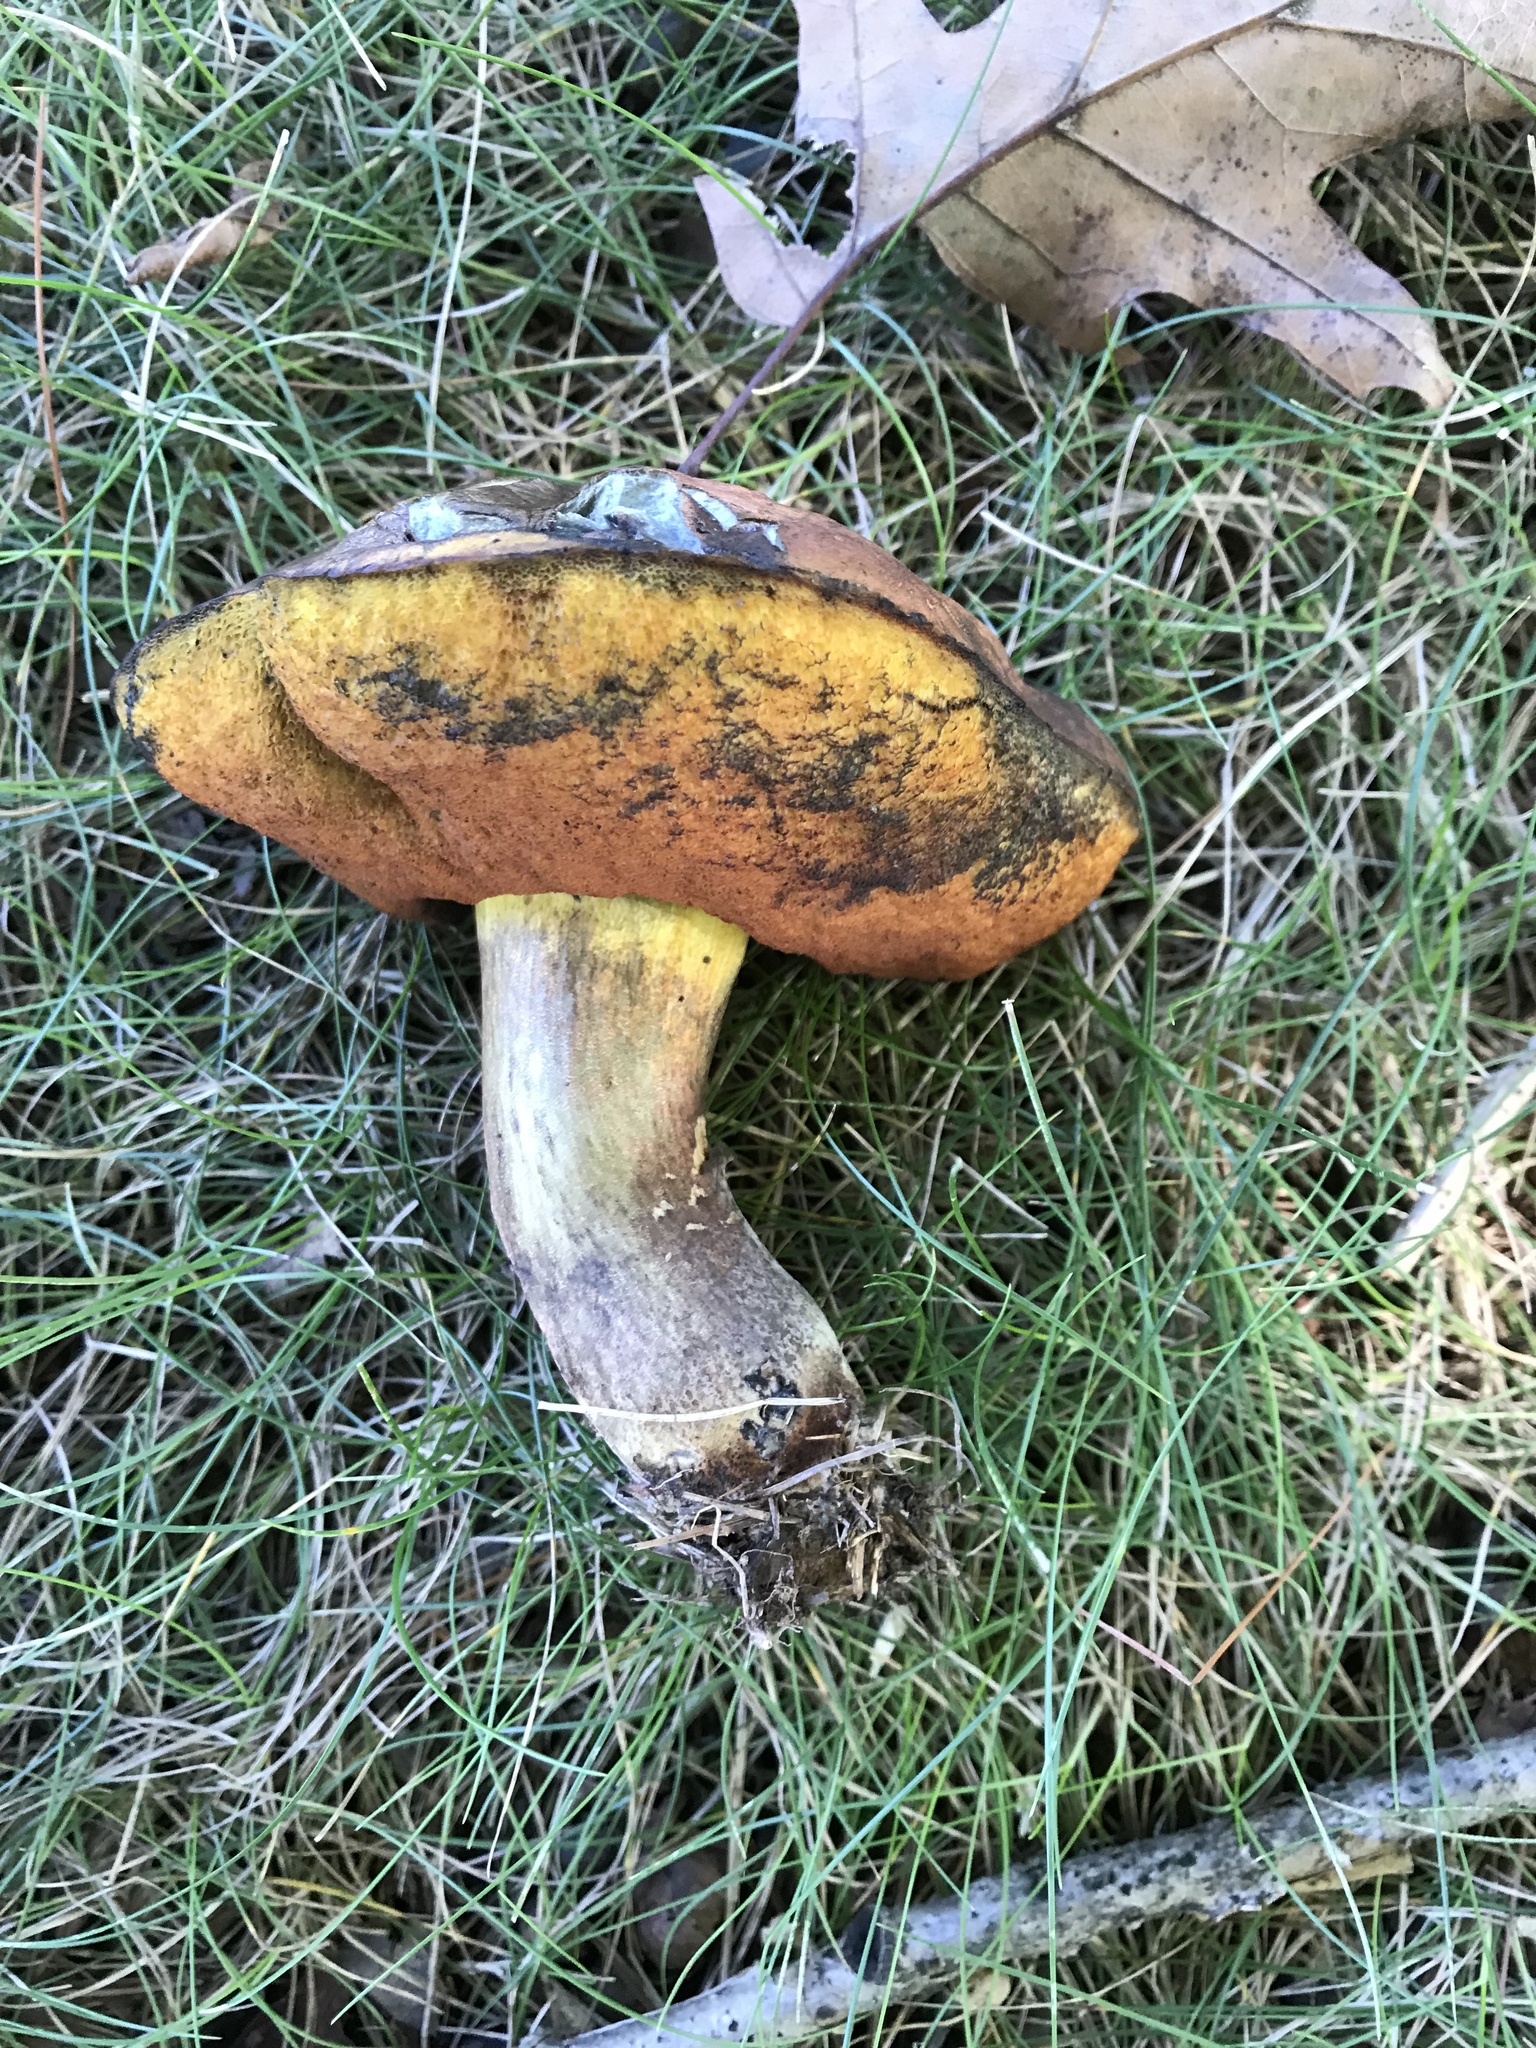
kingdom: Fungi
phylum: Basidiomycota
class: Agaricomycetes
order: Boletales
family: Boletaceae
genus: Boletus
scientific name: Boletus subvelutipes
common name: Red-mouth bolete
